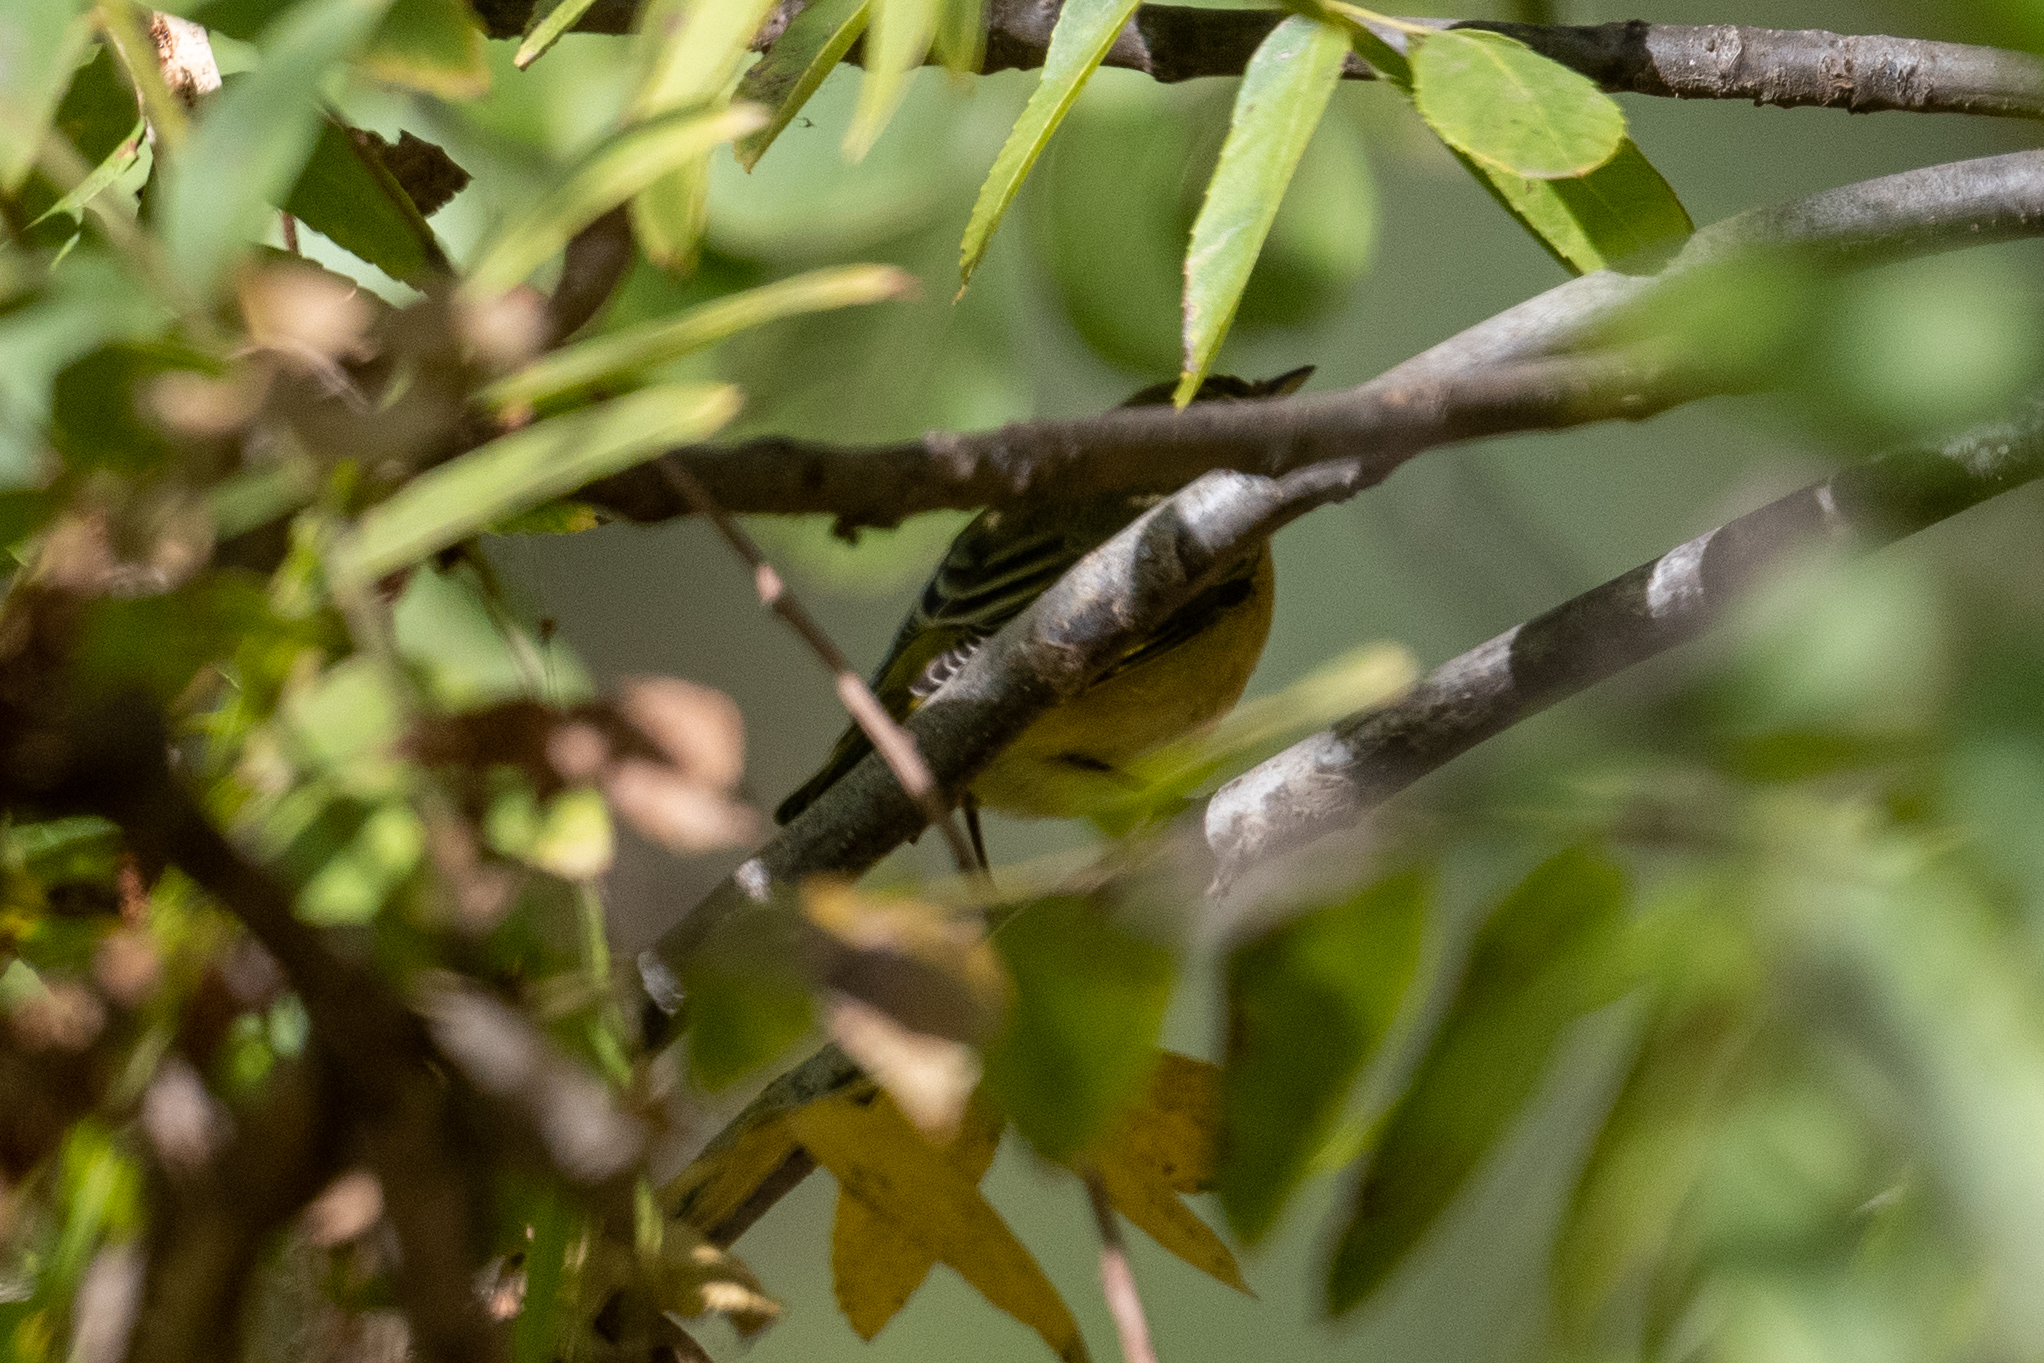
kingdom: Animalia
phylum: Chordata
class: Aves
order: Passeriformes
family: Parulidae
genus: Setophaga
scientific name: Setophaga petechia
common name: Yellow warbler
